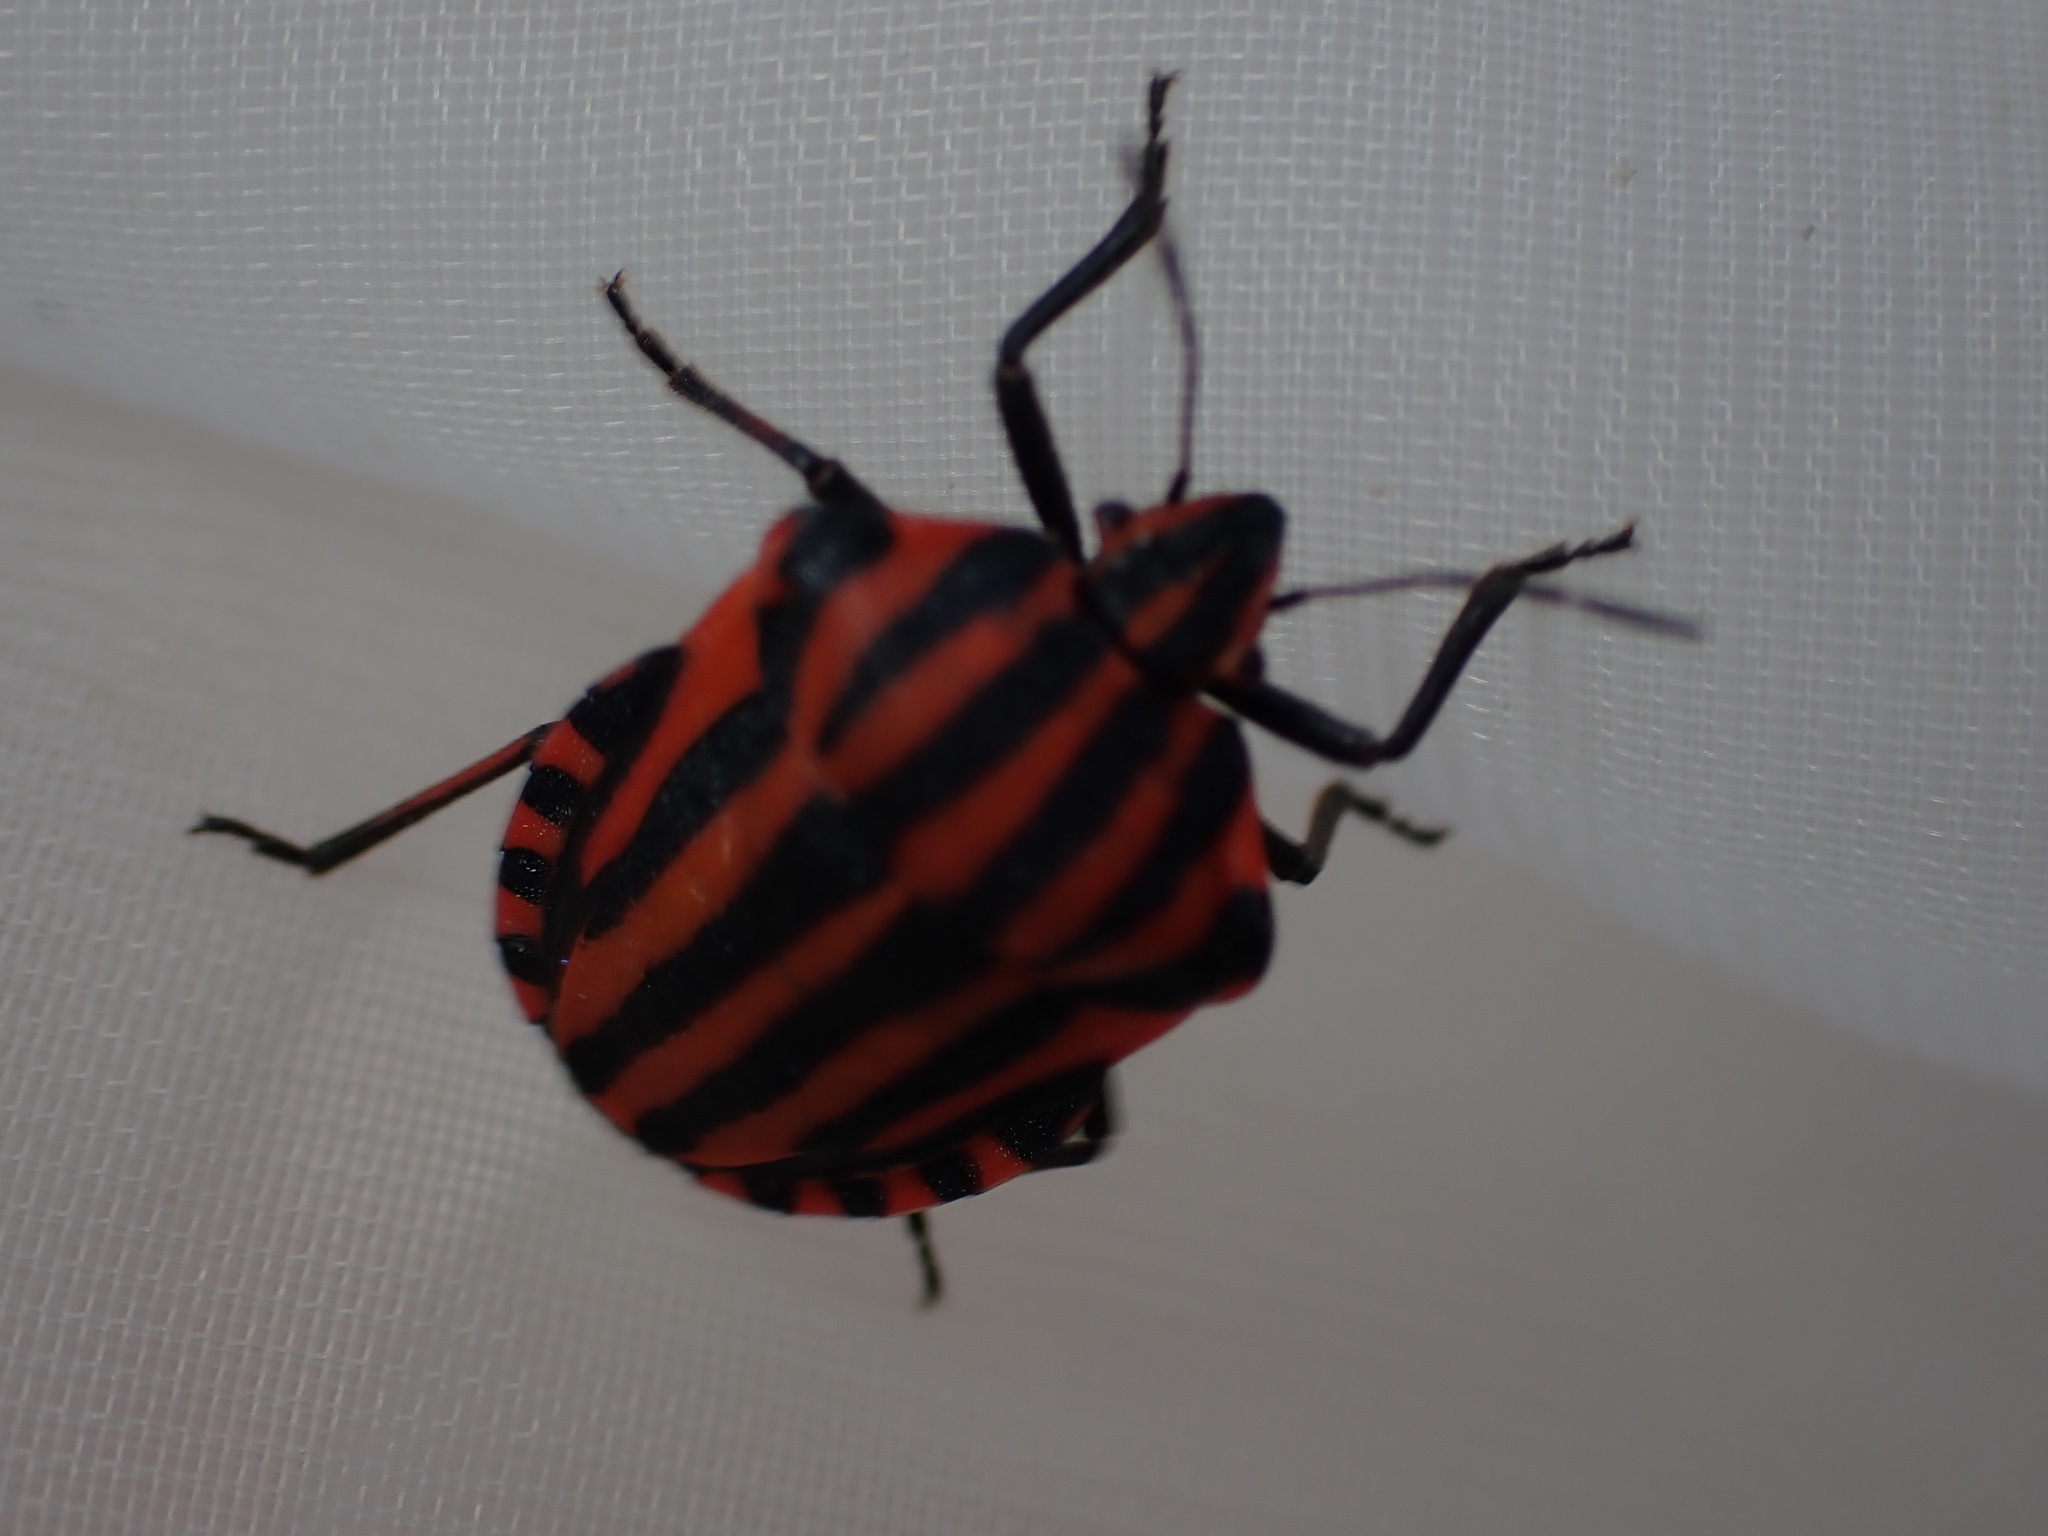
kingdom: Animalia
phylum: Arthropoda
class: Insecta
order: Hemiptera
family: Pentatomidae
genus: Graphosoma
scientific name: Graphosoma italicum
